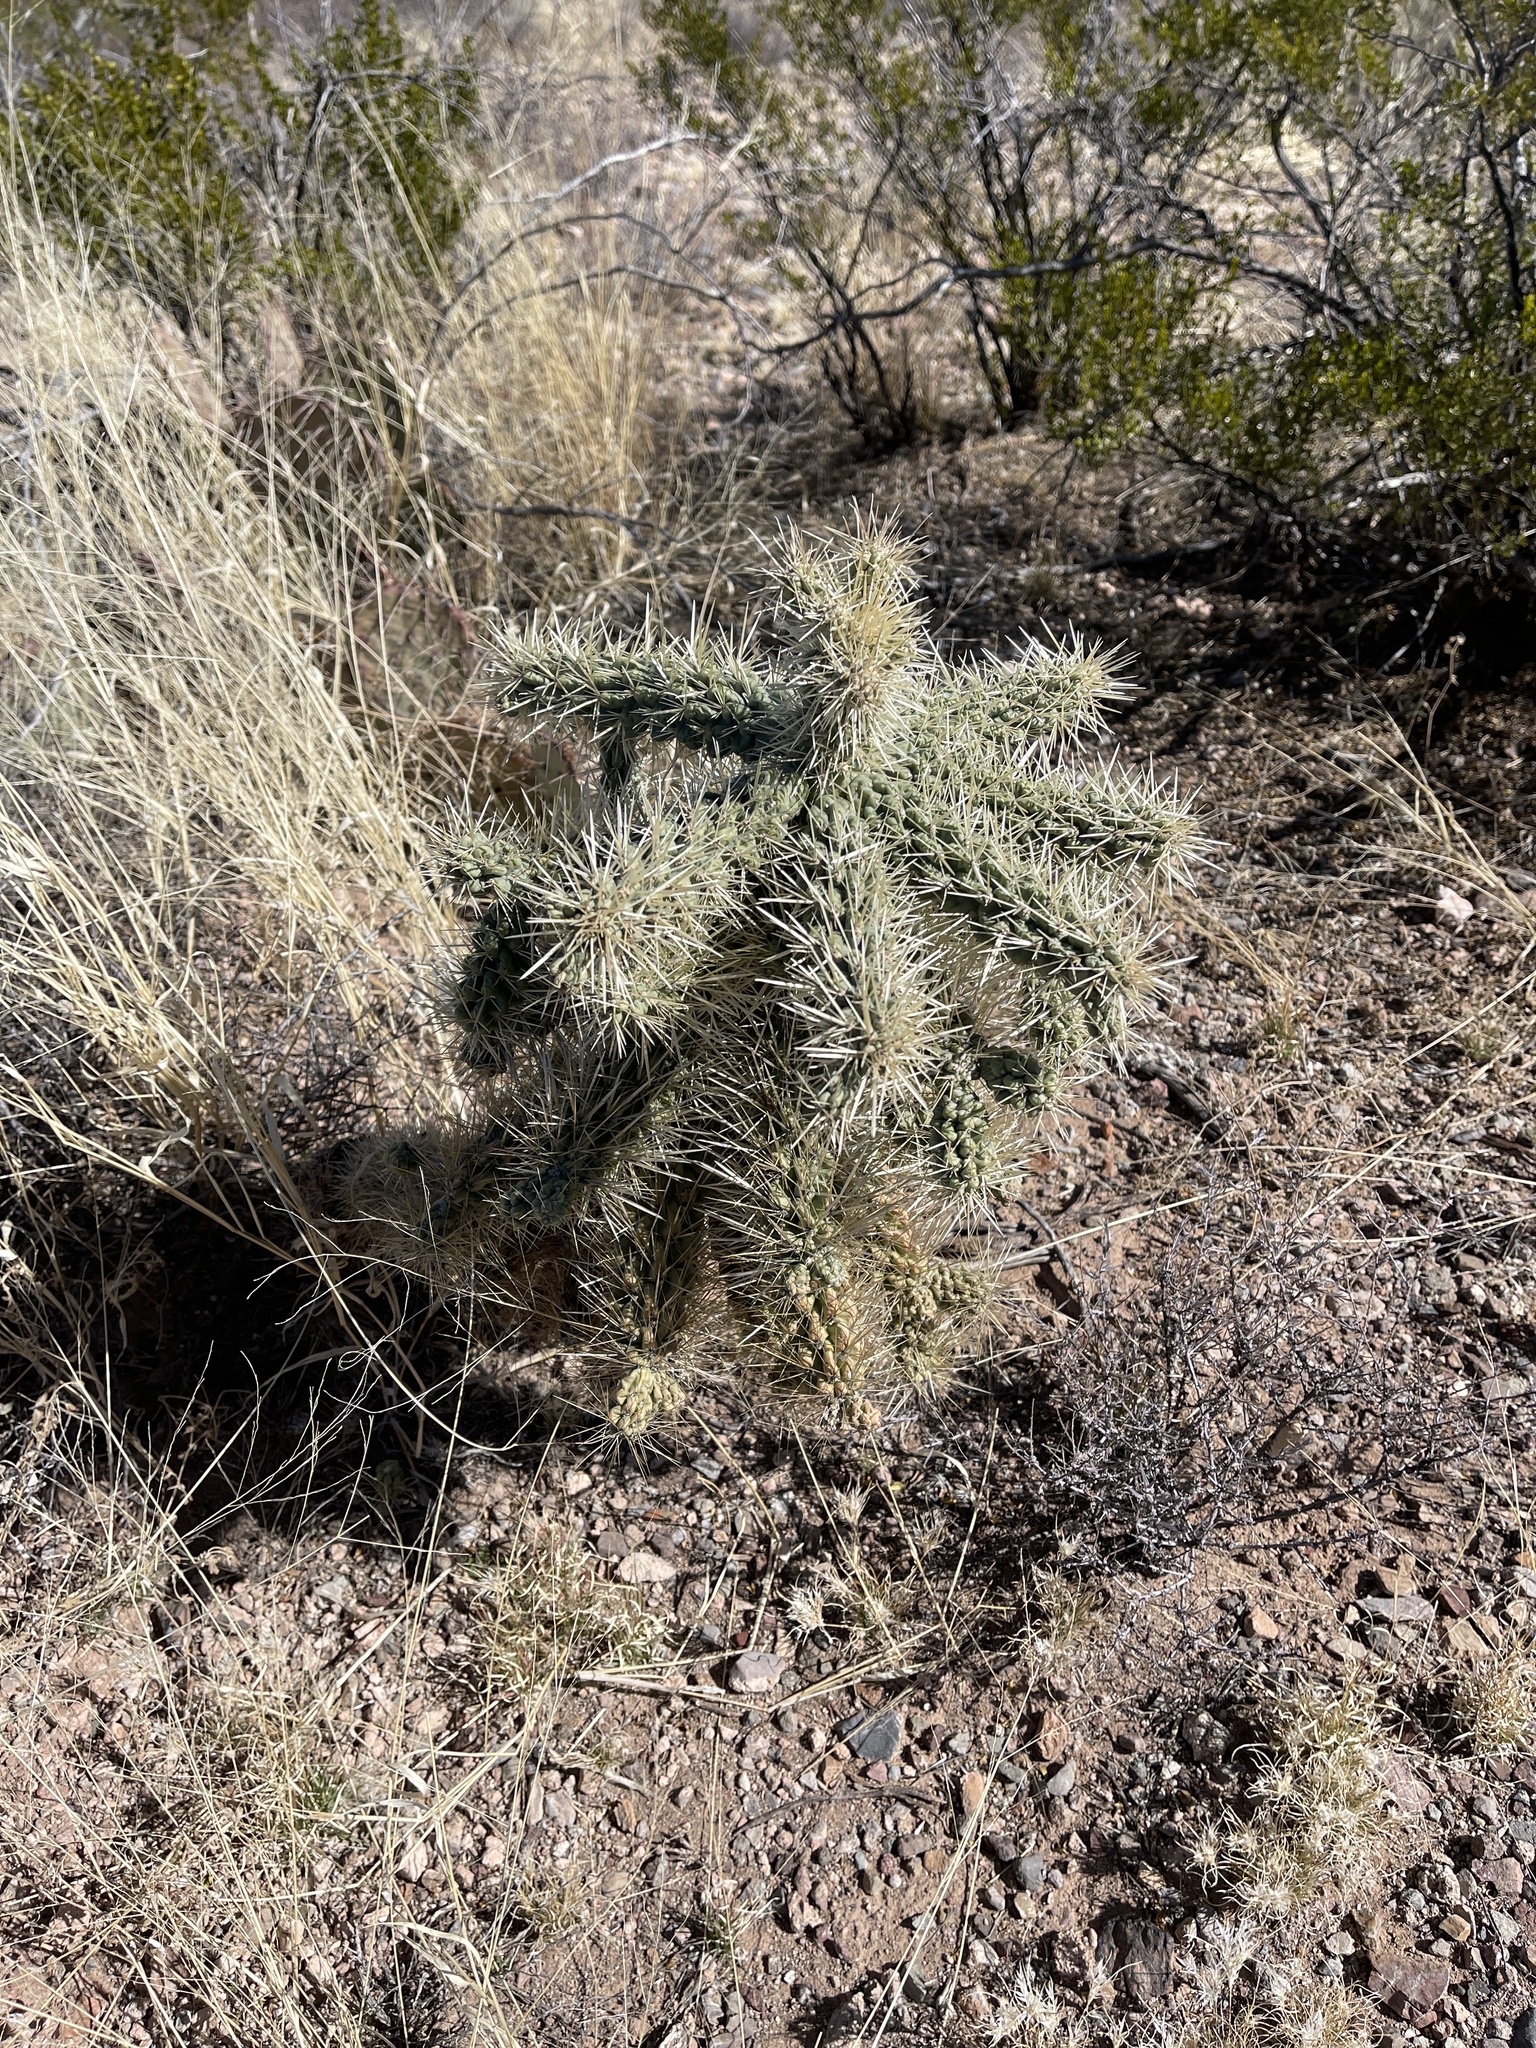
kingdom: Plantae
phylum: Tracheophyta
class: Magnoliopsida
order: Caryophyllales
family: Cactaceae
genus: Cylindropuntia
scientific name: Cylindropuntia fulgida
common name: Jumping cholla
